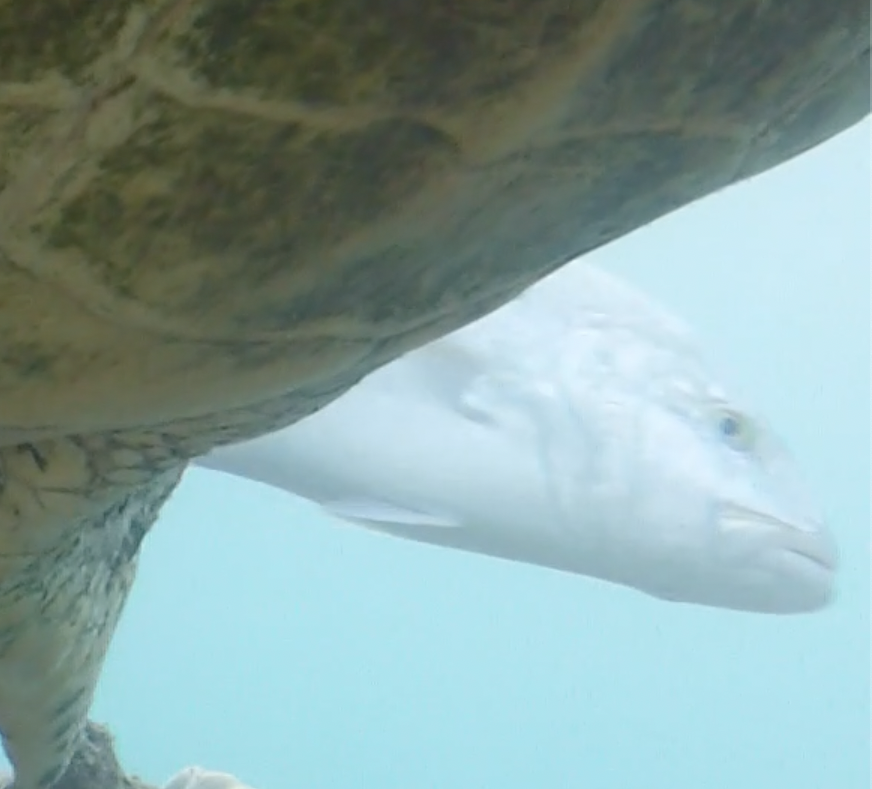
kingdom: Animalia
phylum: Chordata
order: Perciformes
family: Carangidae
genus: Caranx
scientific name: Caranx melampygus
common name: Bluefin trevally
